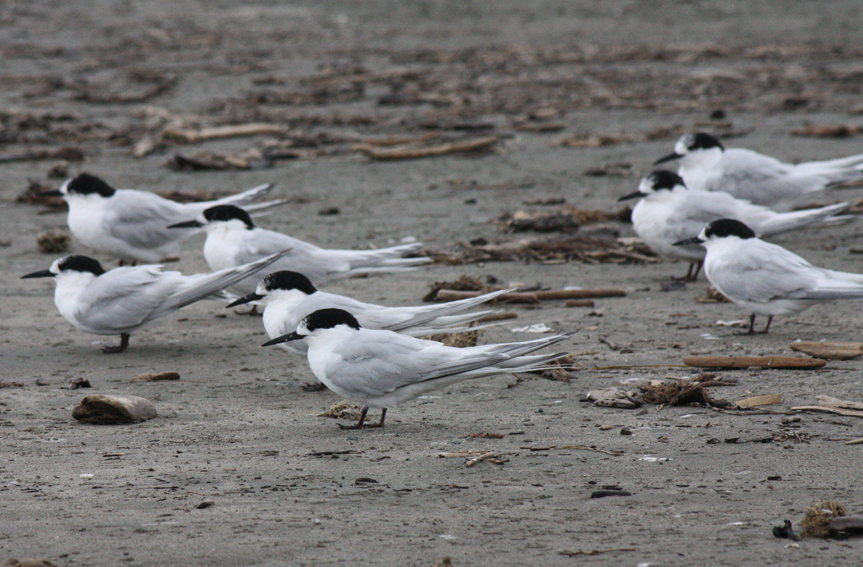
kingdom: Animalia
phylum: Chordata
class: Aves
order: Charadriiformes
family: Laridae
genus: Sterna
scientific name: Sterna striata
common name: White-fronted tern
